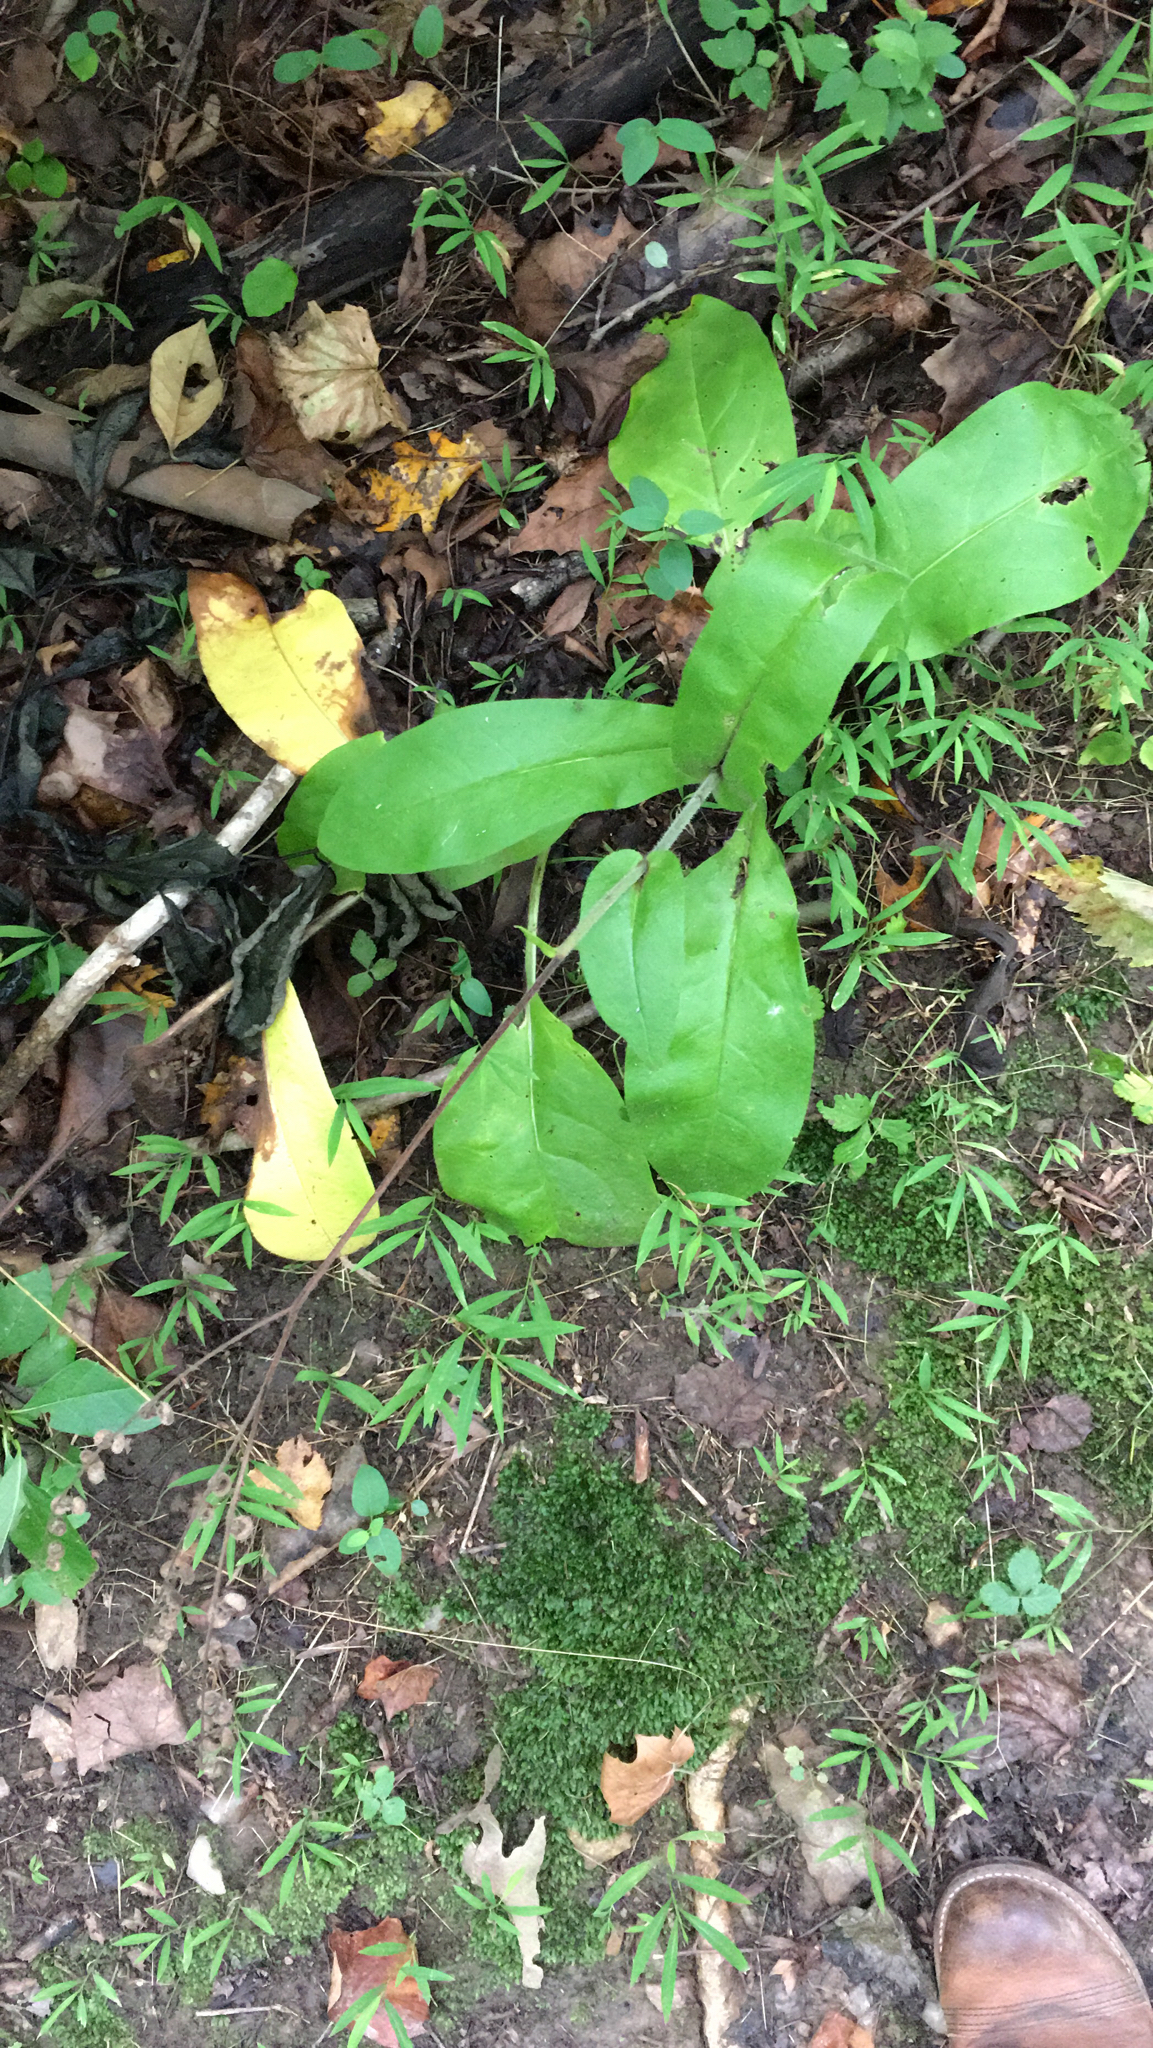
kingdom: Plantae
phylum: Tracheophyta
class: Magnoliopsida
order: Boraginales
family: Boraginaceae
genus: Andersonglossum
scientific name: Andersonglossum virginianum
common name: Wild comfrey
